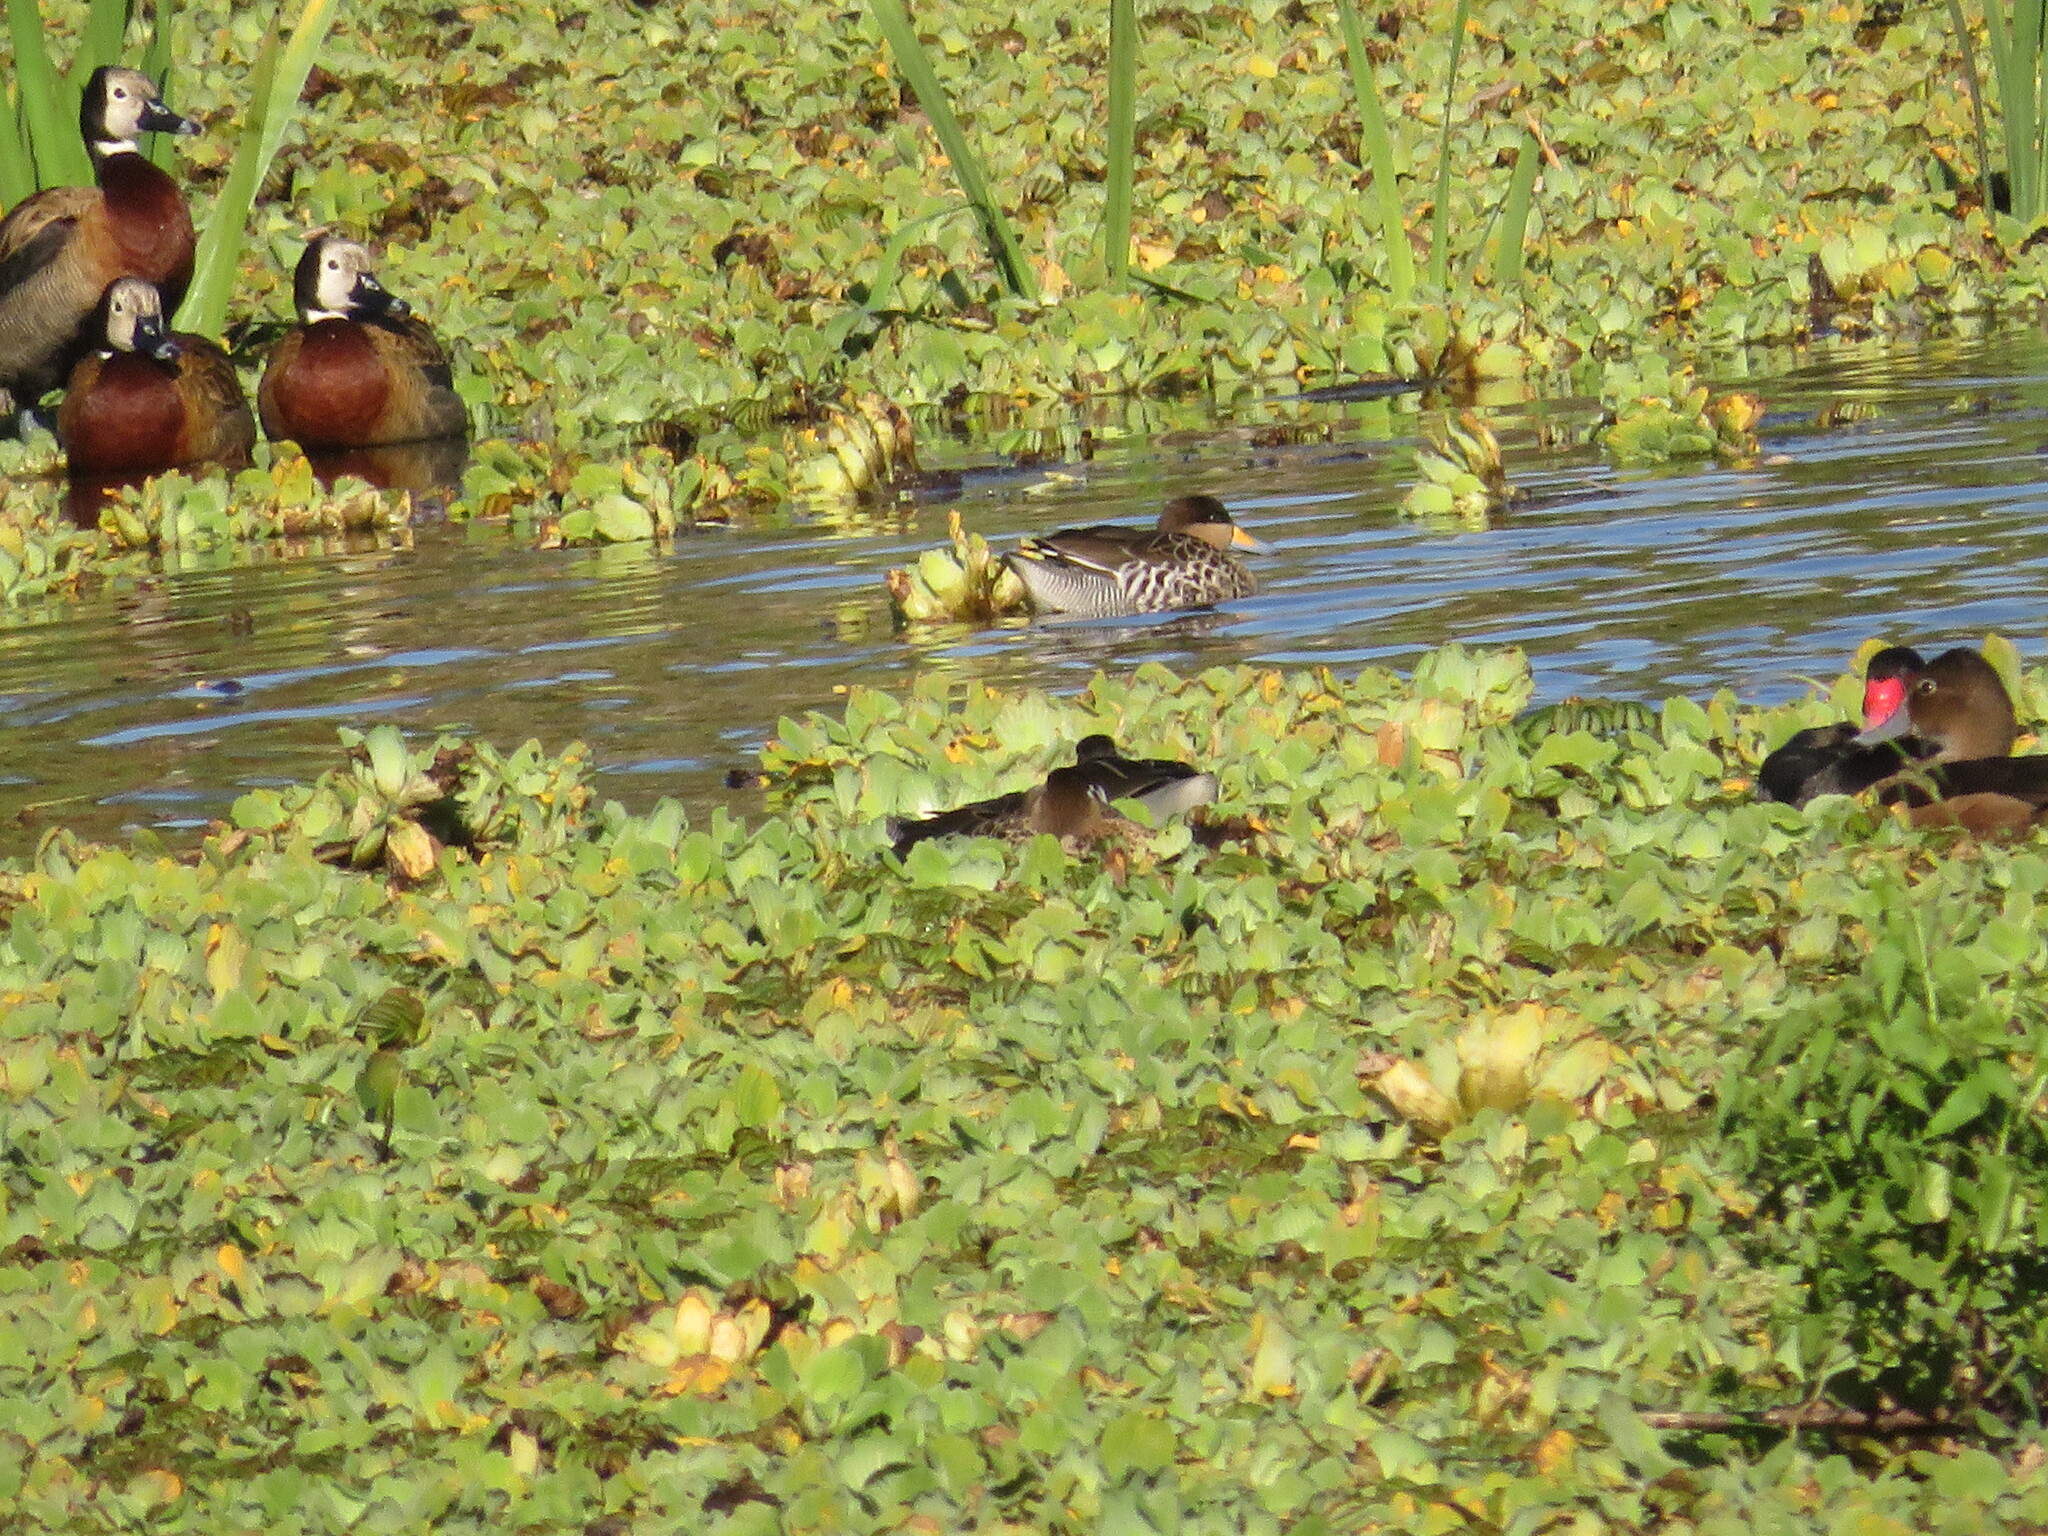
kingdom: Animalia
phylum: Chordata
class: Aves
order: Anseriformes
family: Anatidae
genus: Spatula
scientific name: Spatula versicolor
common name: Silver teal
